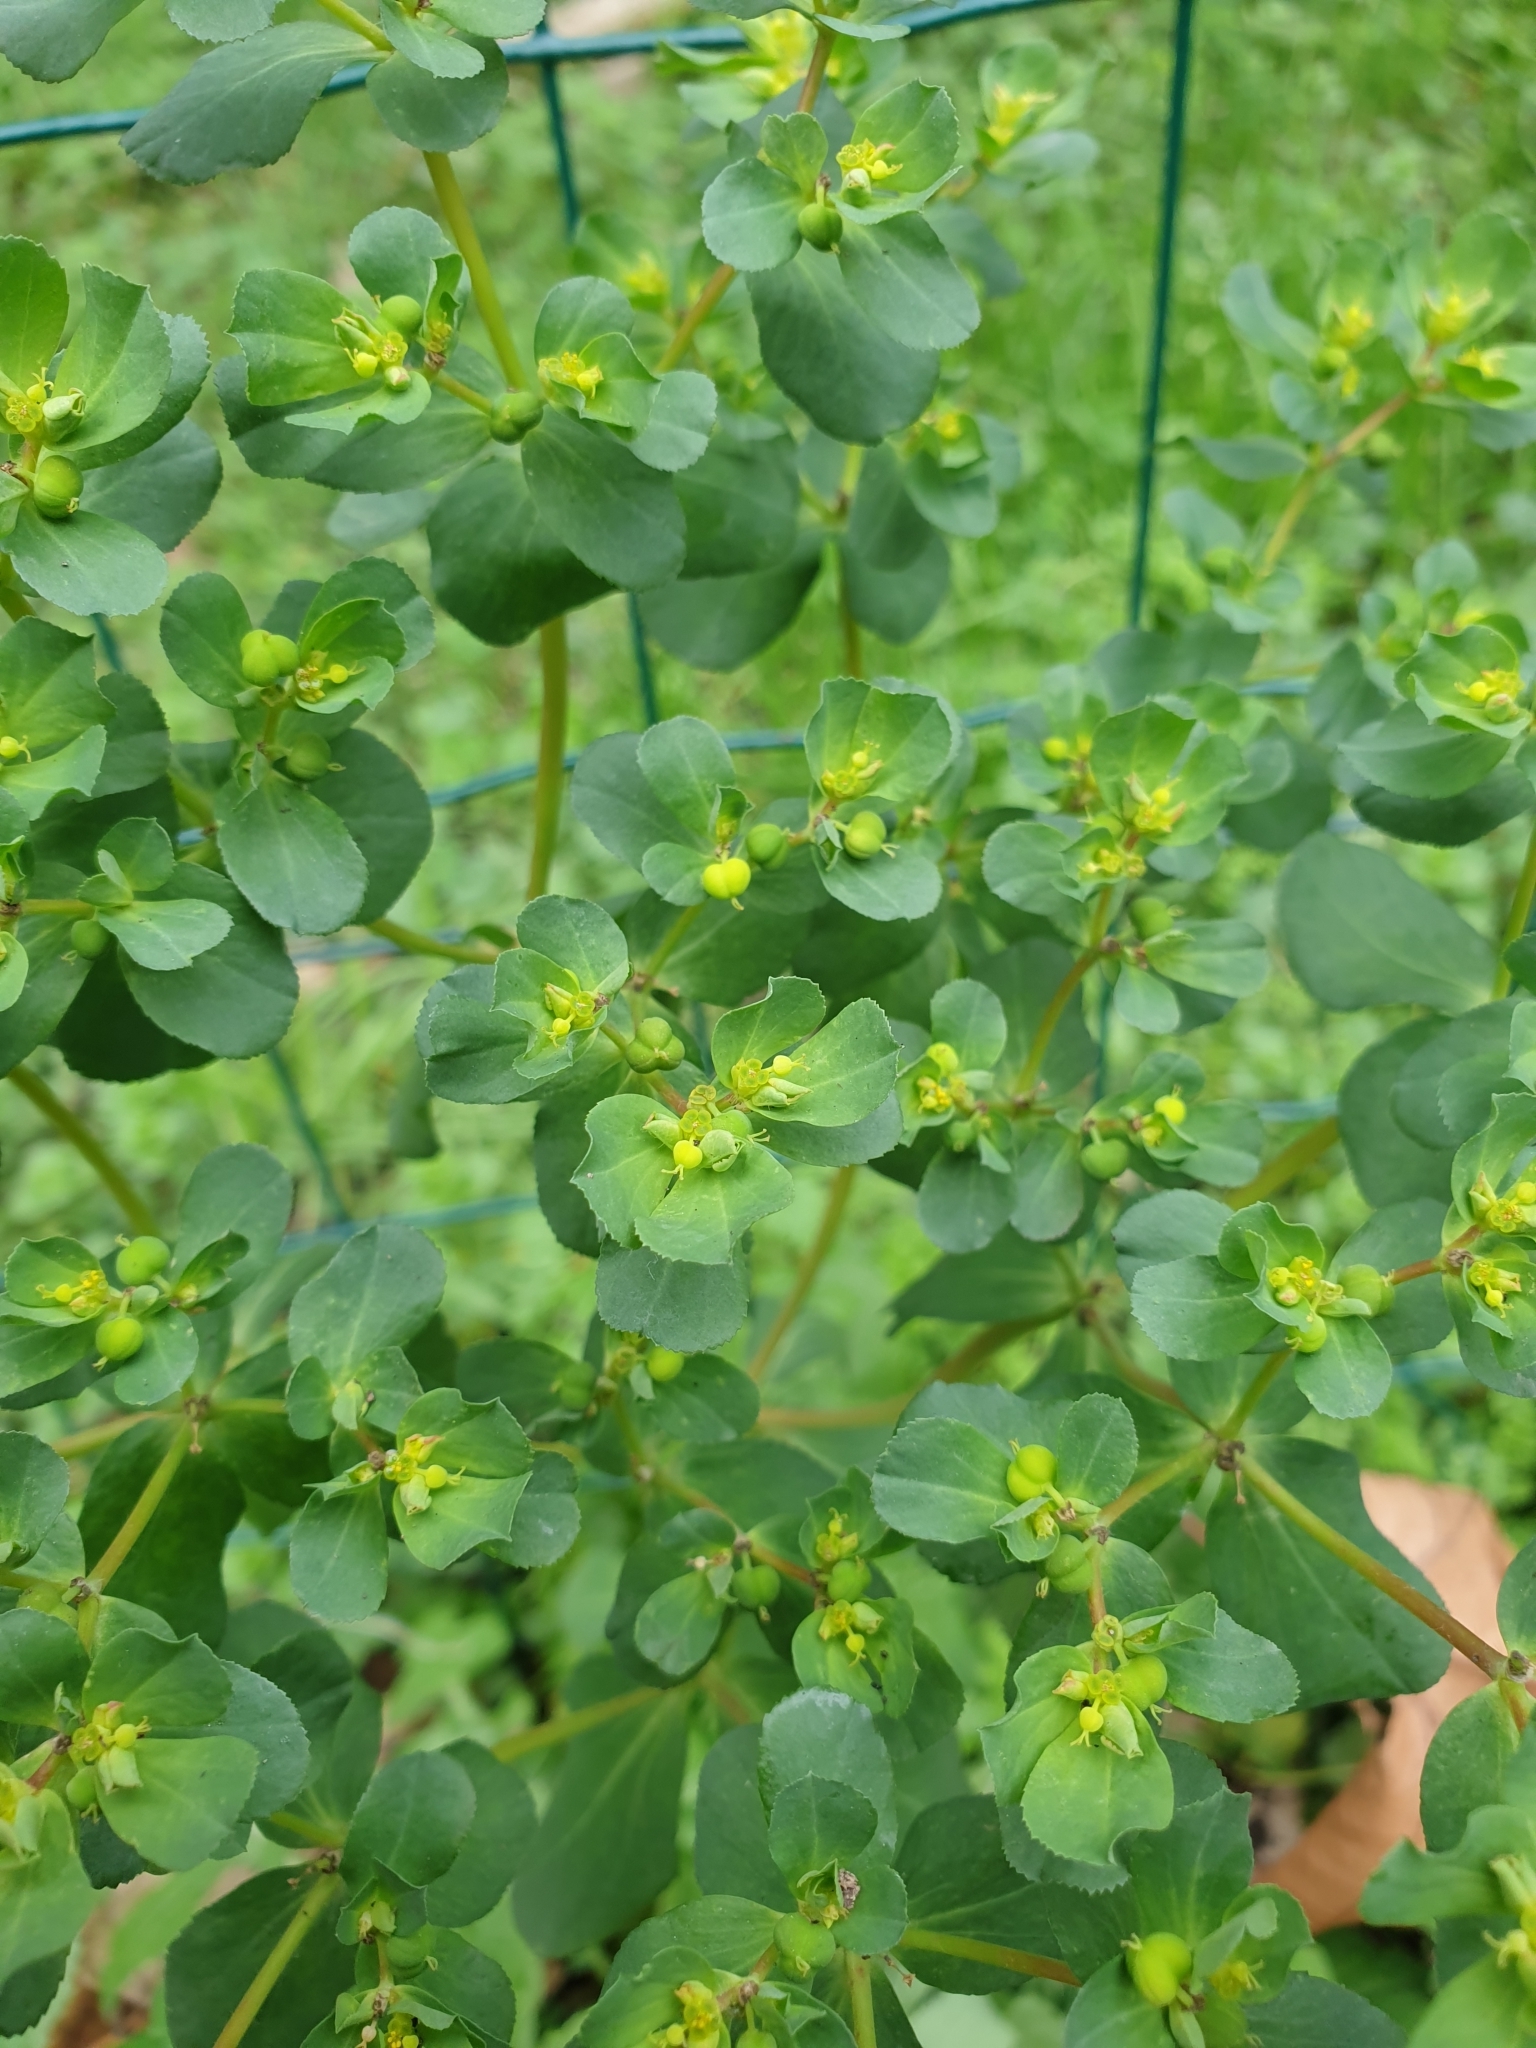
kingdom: Plantae
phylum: Tracheophyta
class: Magnoliopsida
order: Malpighiales
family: Euphorbiaceae
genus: Euphorbia
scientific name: Euphorbia helioscopia
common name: Sun spurge
